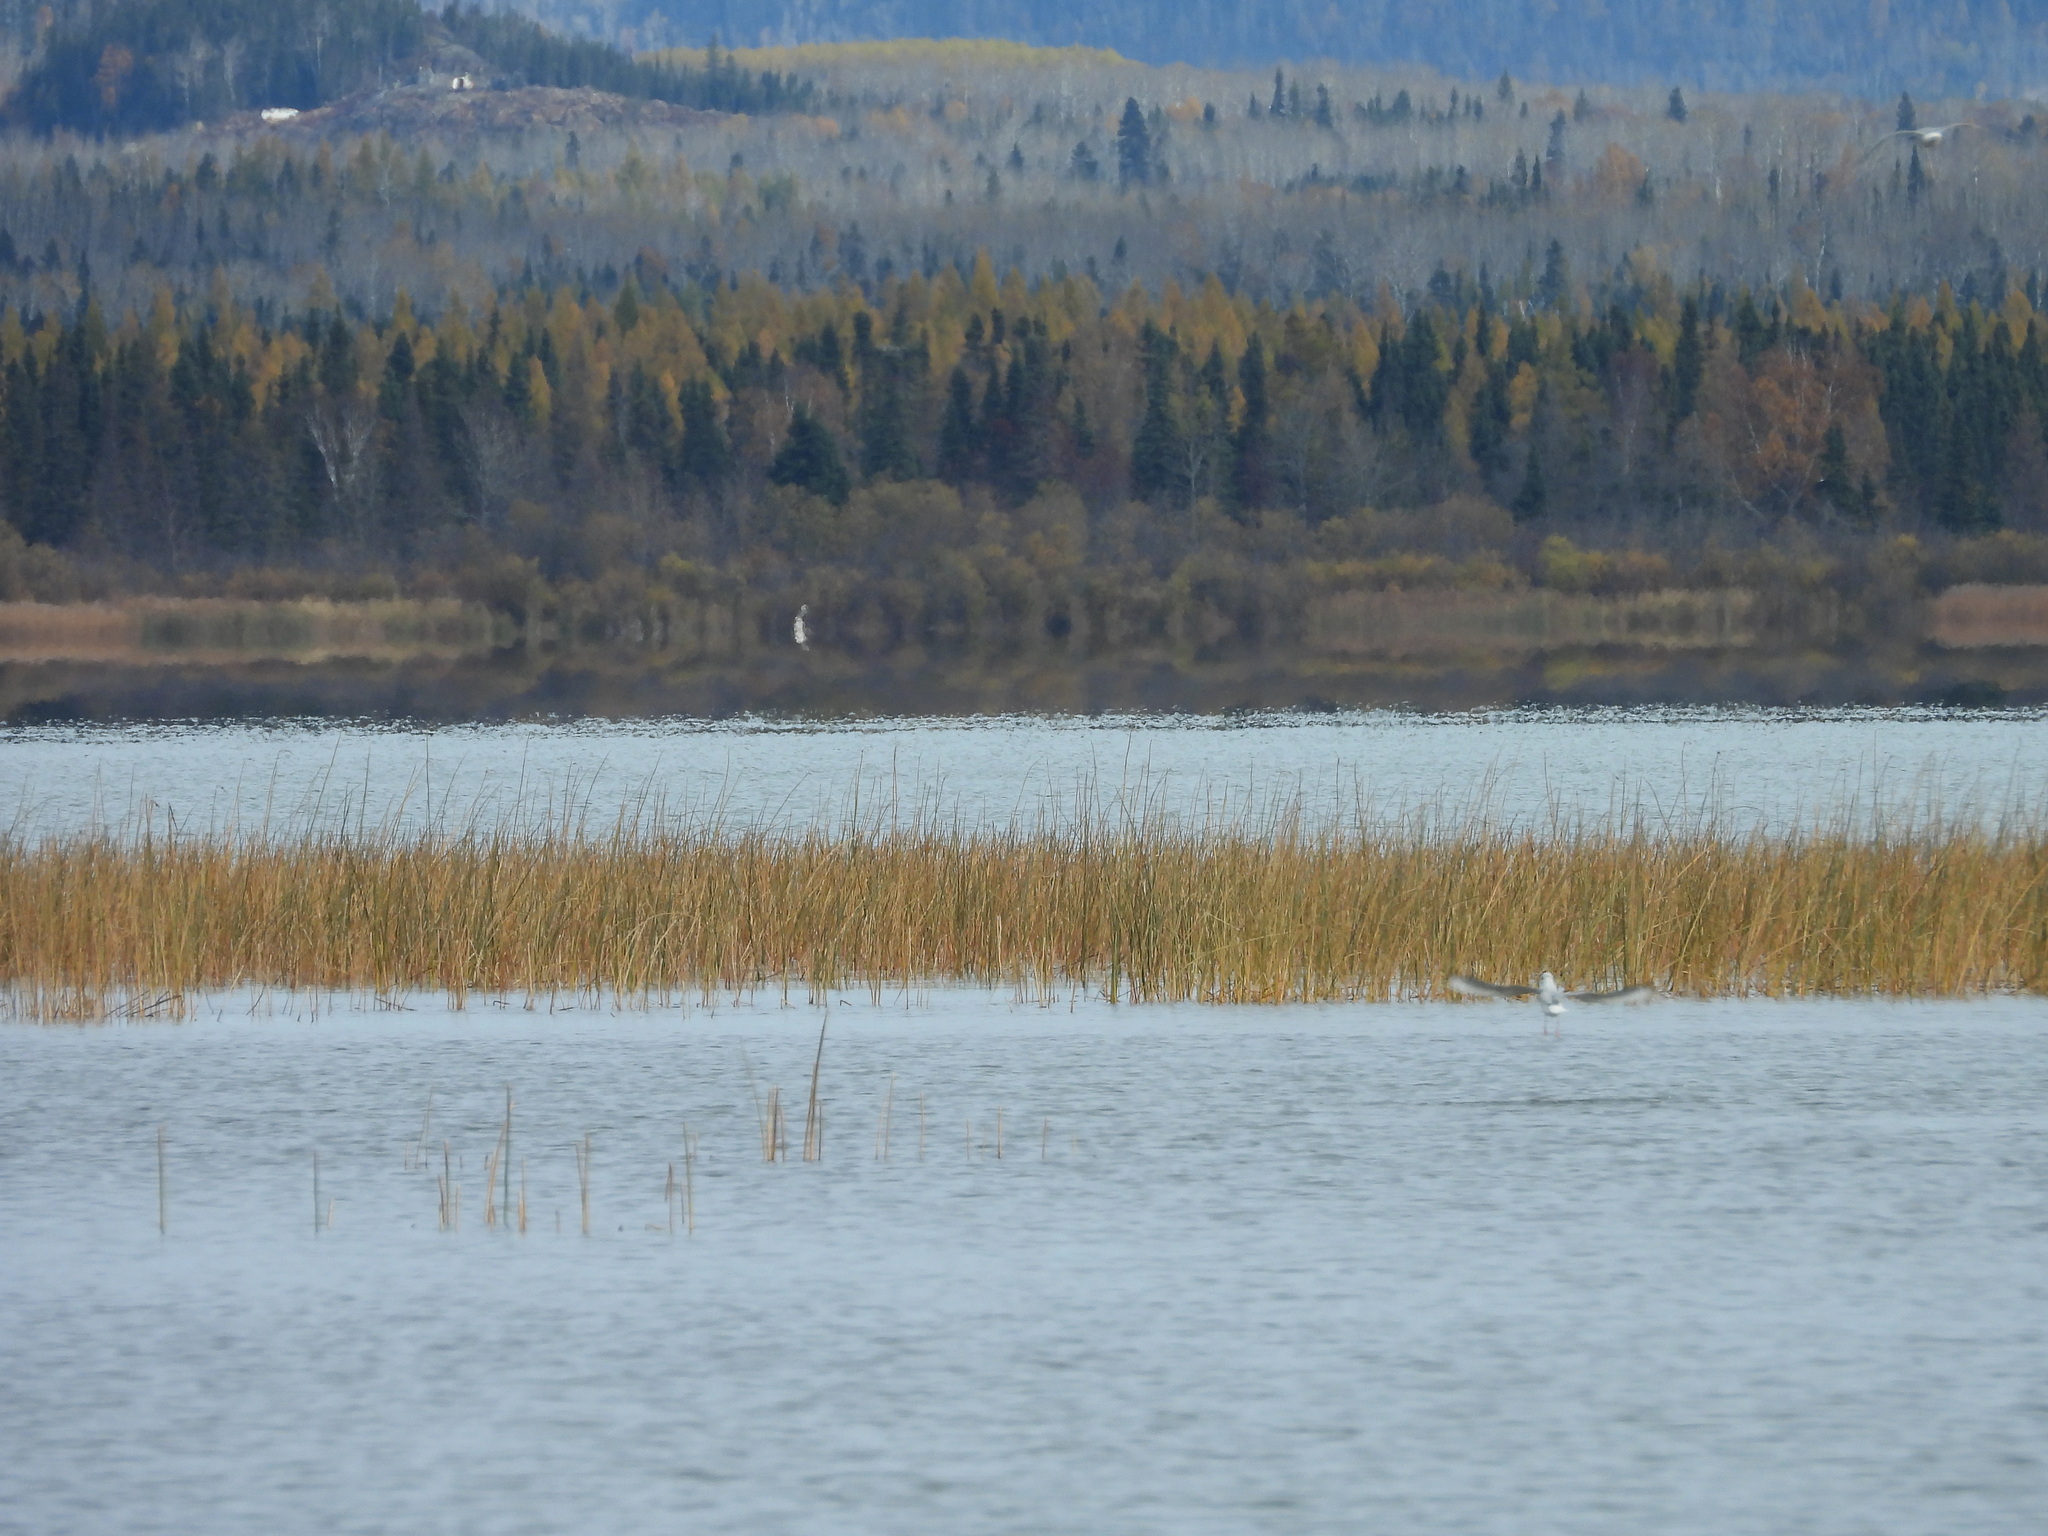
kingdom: Animalia
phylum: Chordata
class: Aves
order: Charadriiformes
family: Laridae
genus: Chroicocephalus
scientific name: Chroicocephalus philadelphia
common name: Bonaparte's gull
